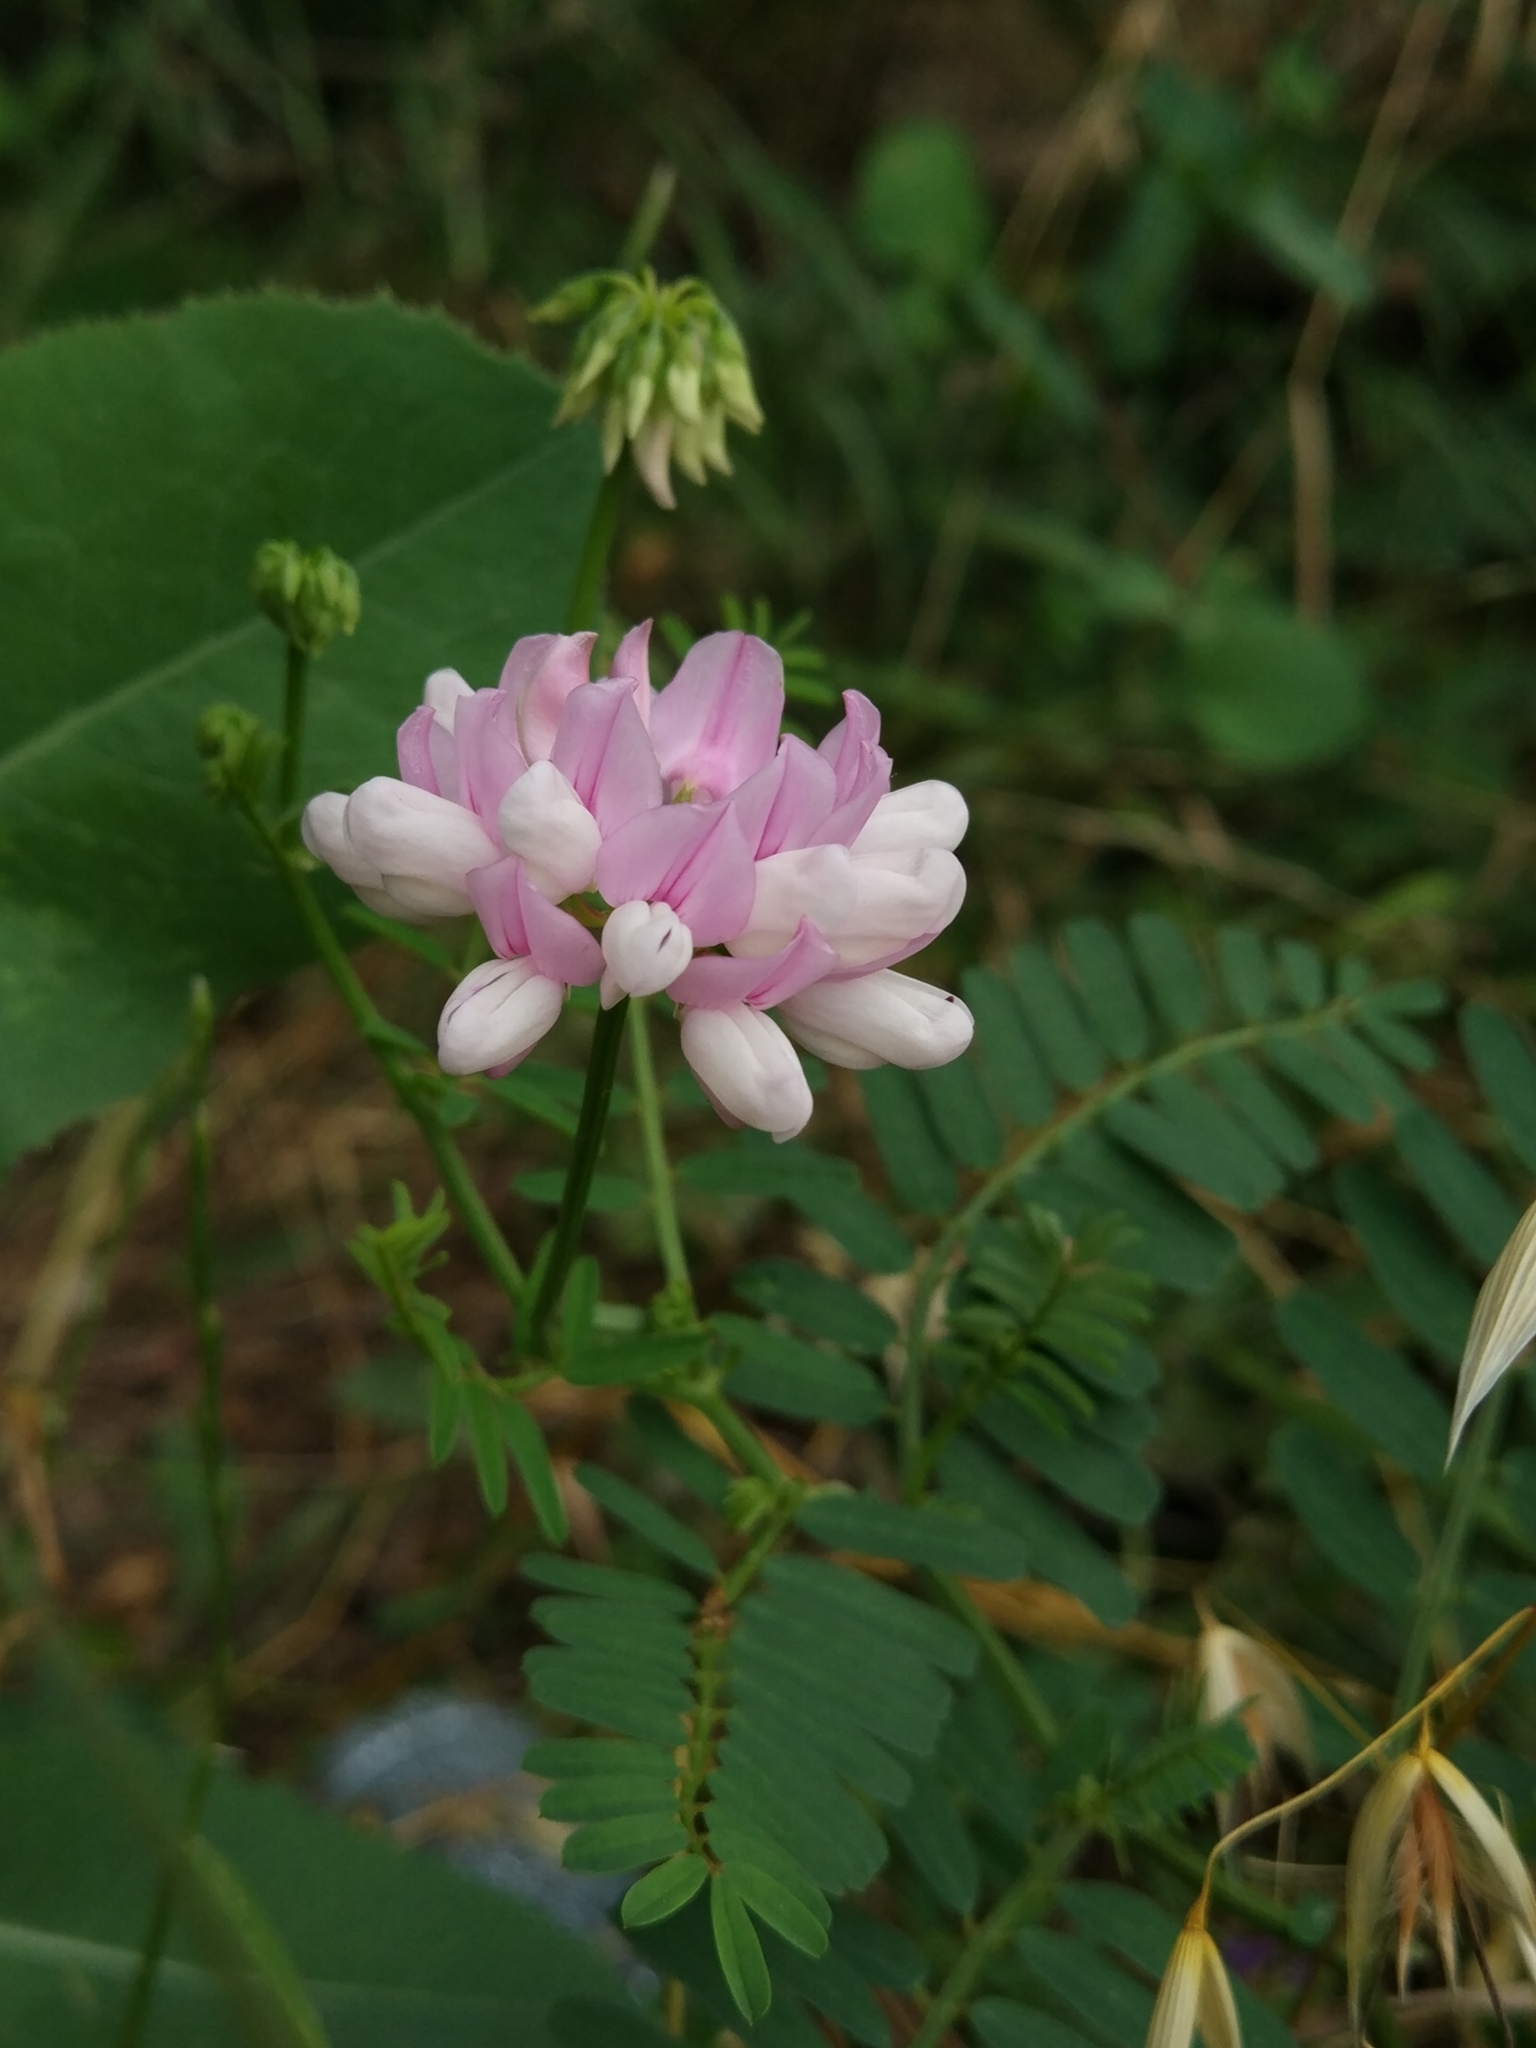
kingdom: Plantae
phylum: Tracheophyta
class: Magnoliopsida
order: Fabales
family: Fabaceae
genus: Coronilla
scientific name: Coronilla varia
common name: Crownvetch
